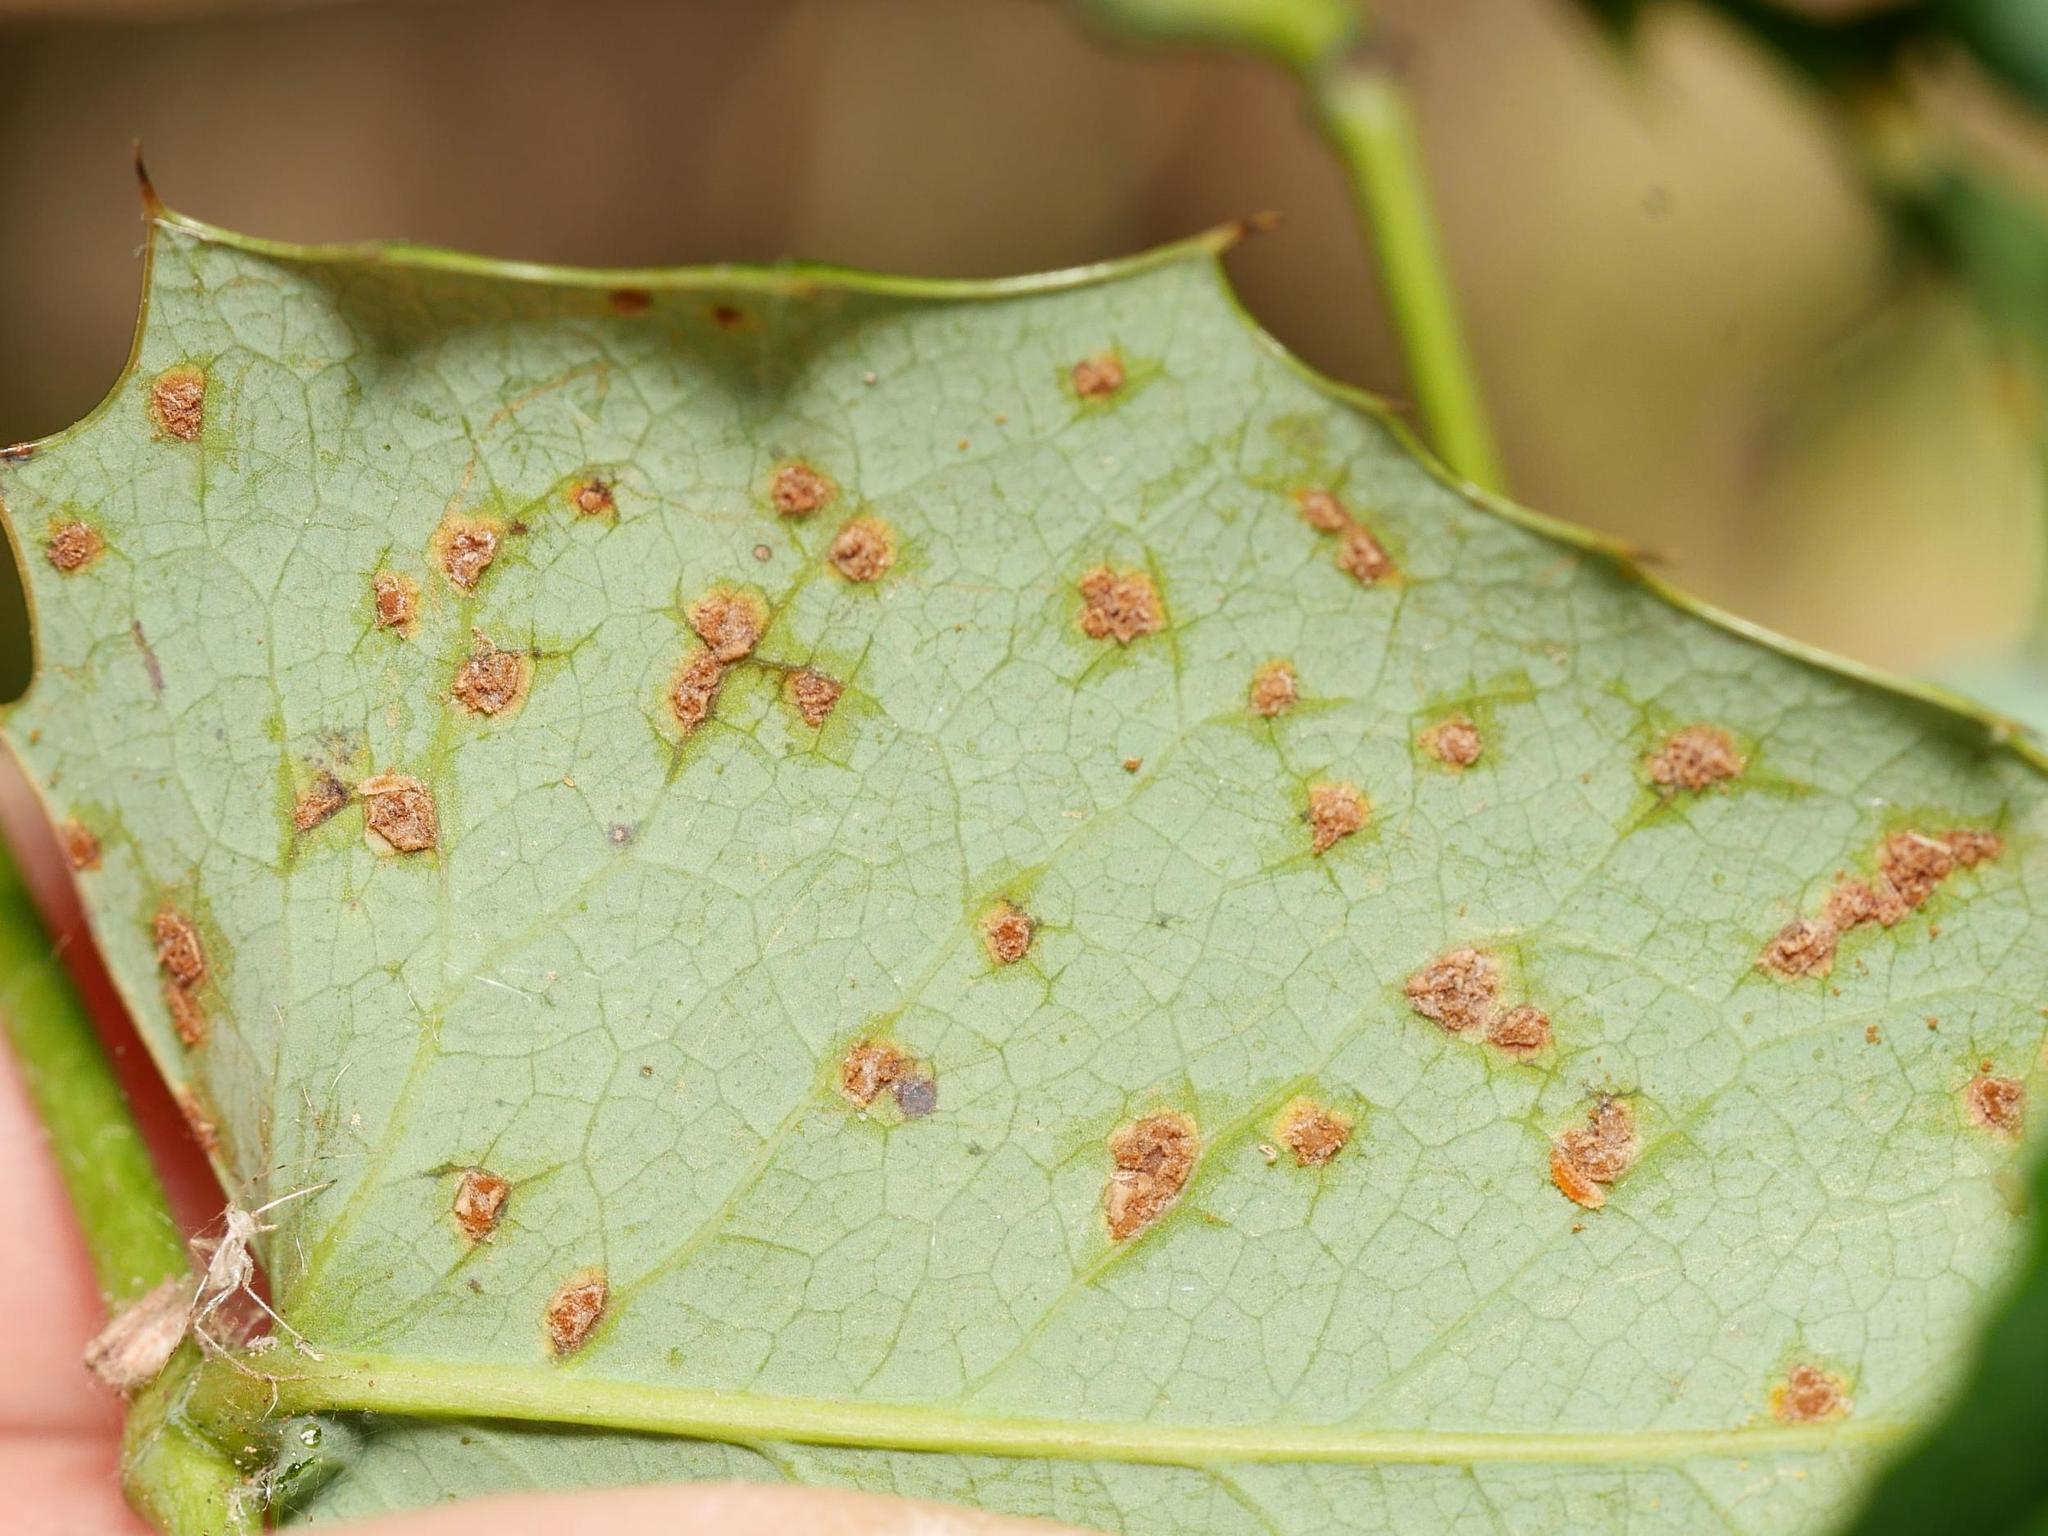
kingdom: Fungi
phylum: Basidiomycota
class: Pucciniomycetes
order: Pucciniales
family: Pucciniaceae
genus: Cumminsiella
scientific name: Cumminsiella mirabilissima
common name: Mahonia rust
